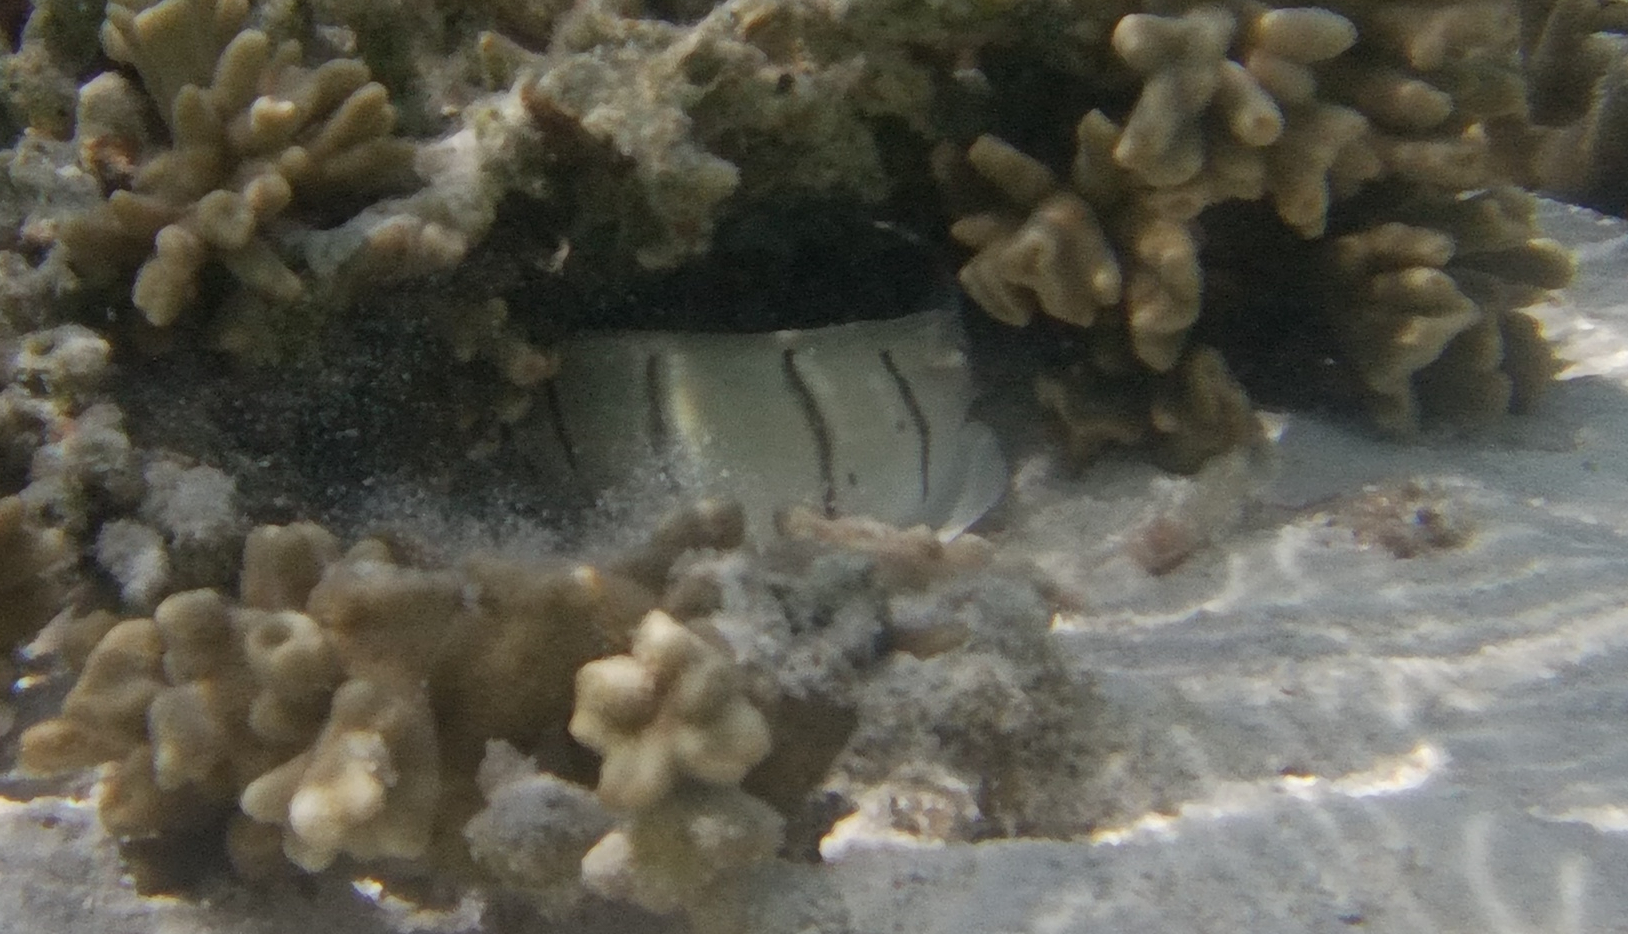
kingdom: Animalia
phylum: Chordata
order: Perciformes
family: Acanthuridae
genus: Acanthurus
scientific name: Acanthurus triostegus
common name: Convict surgeonfish
